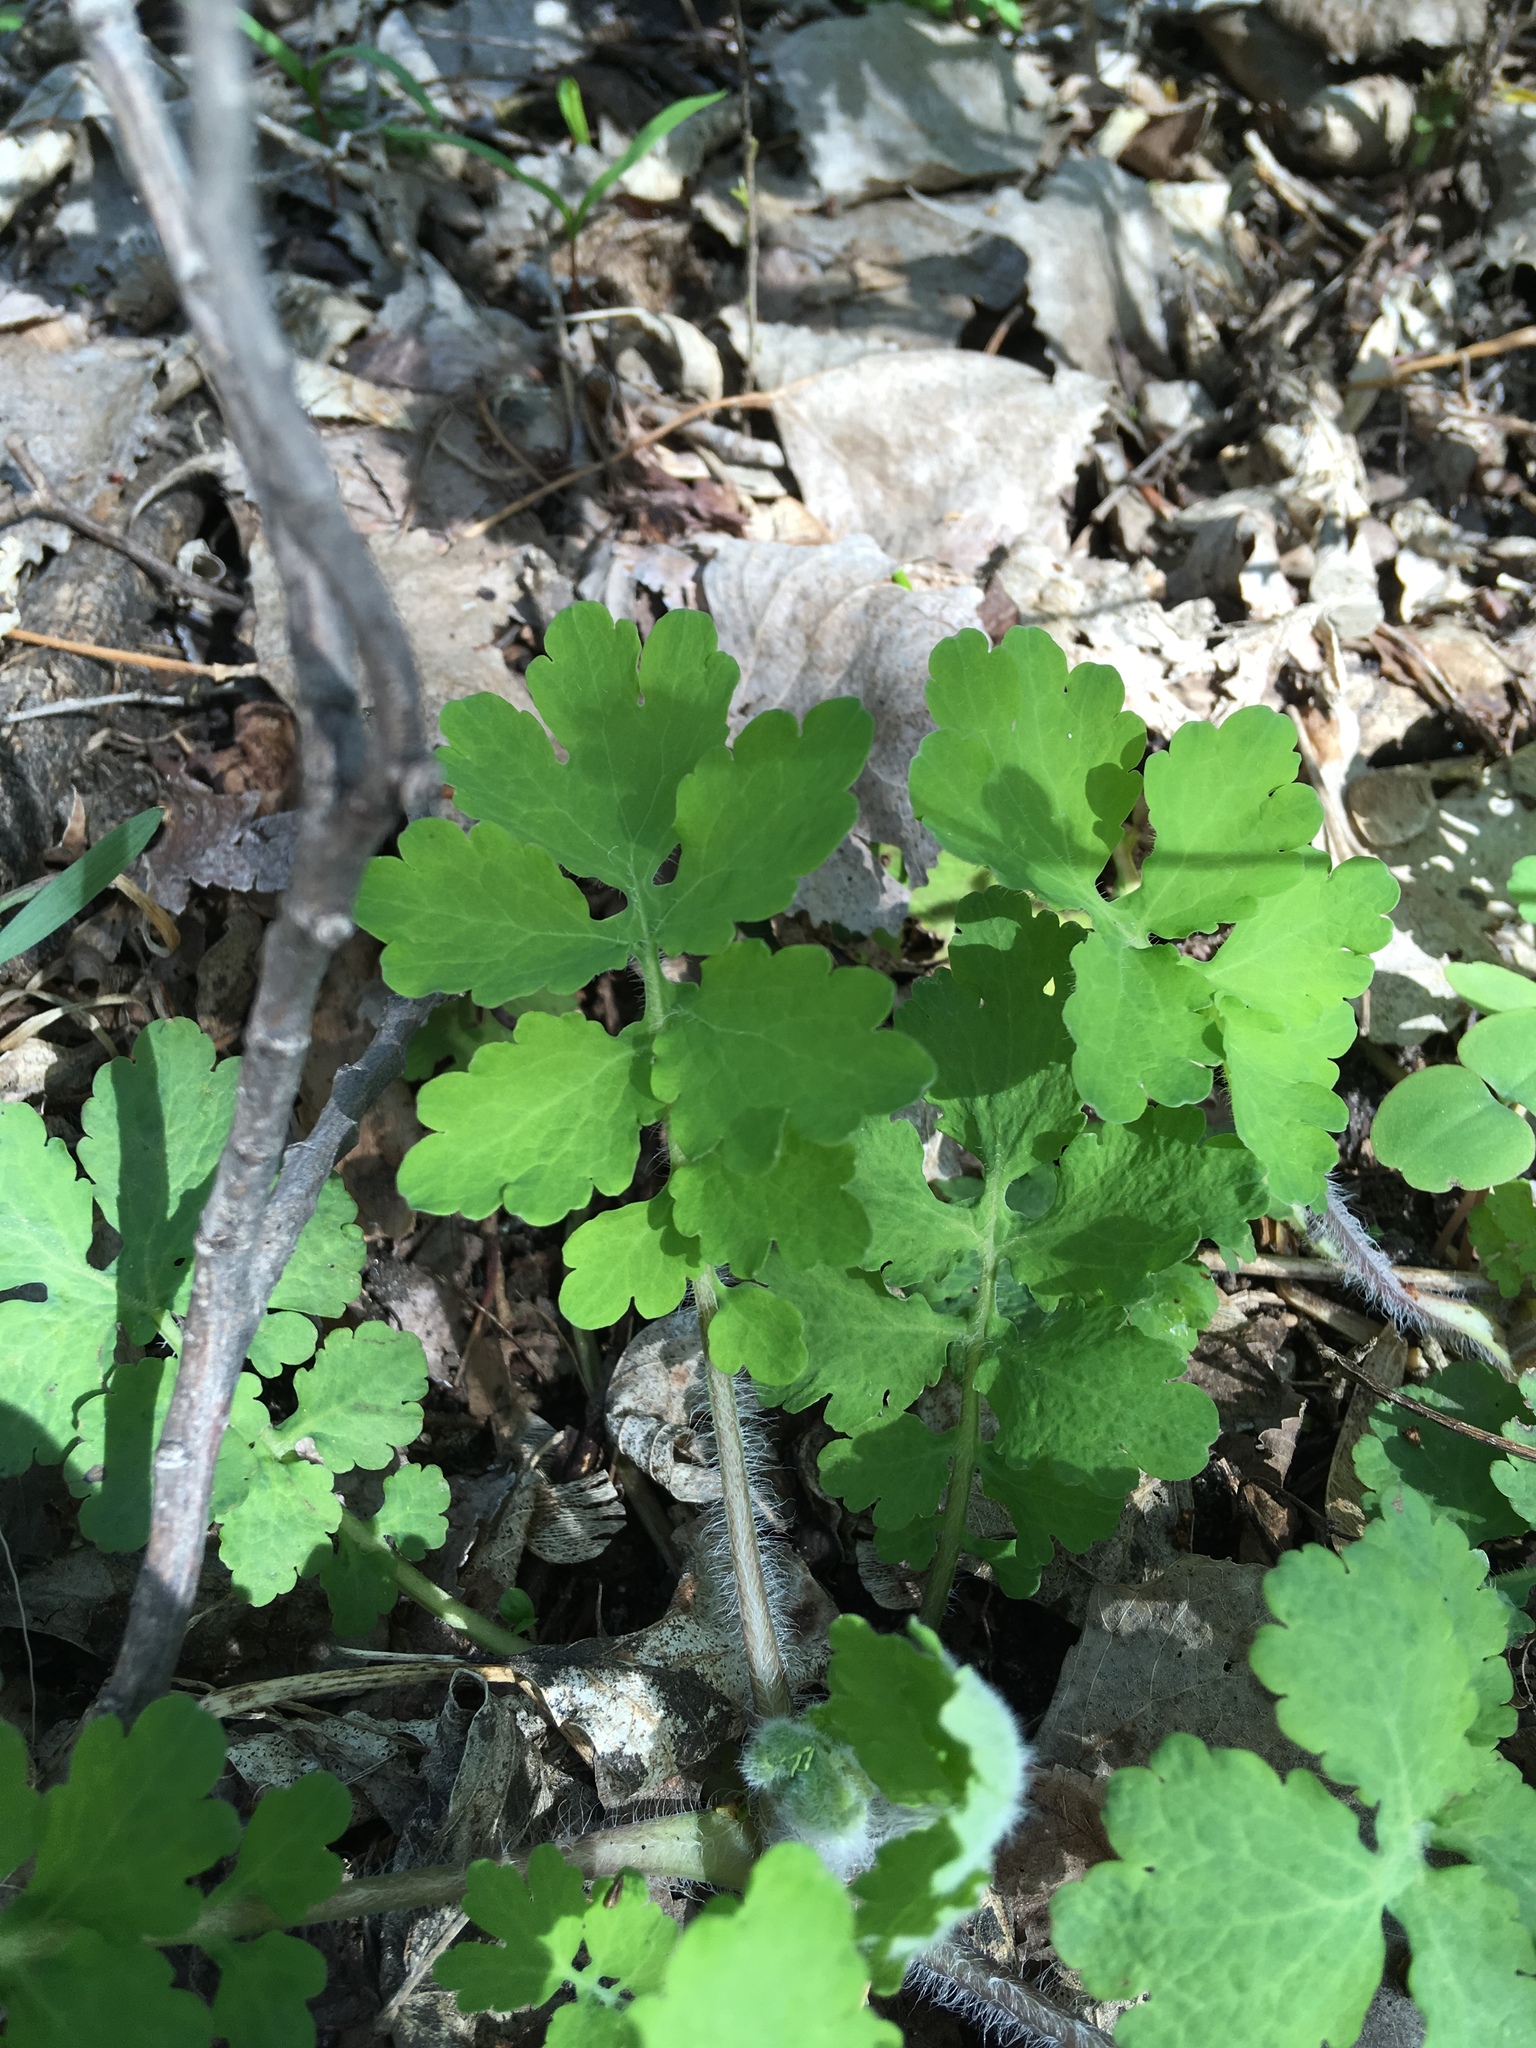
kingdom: Plantae
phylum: Tracheophyta
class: Magnoliopsida
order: Ranunculales
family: Papaveraceae
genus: Chelidonium
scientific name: Chelidonium majus
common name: Greater celandine
